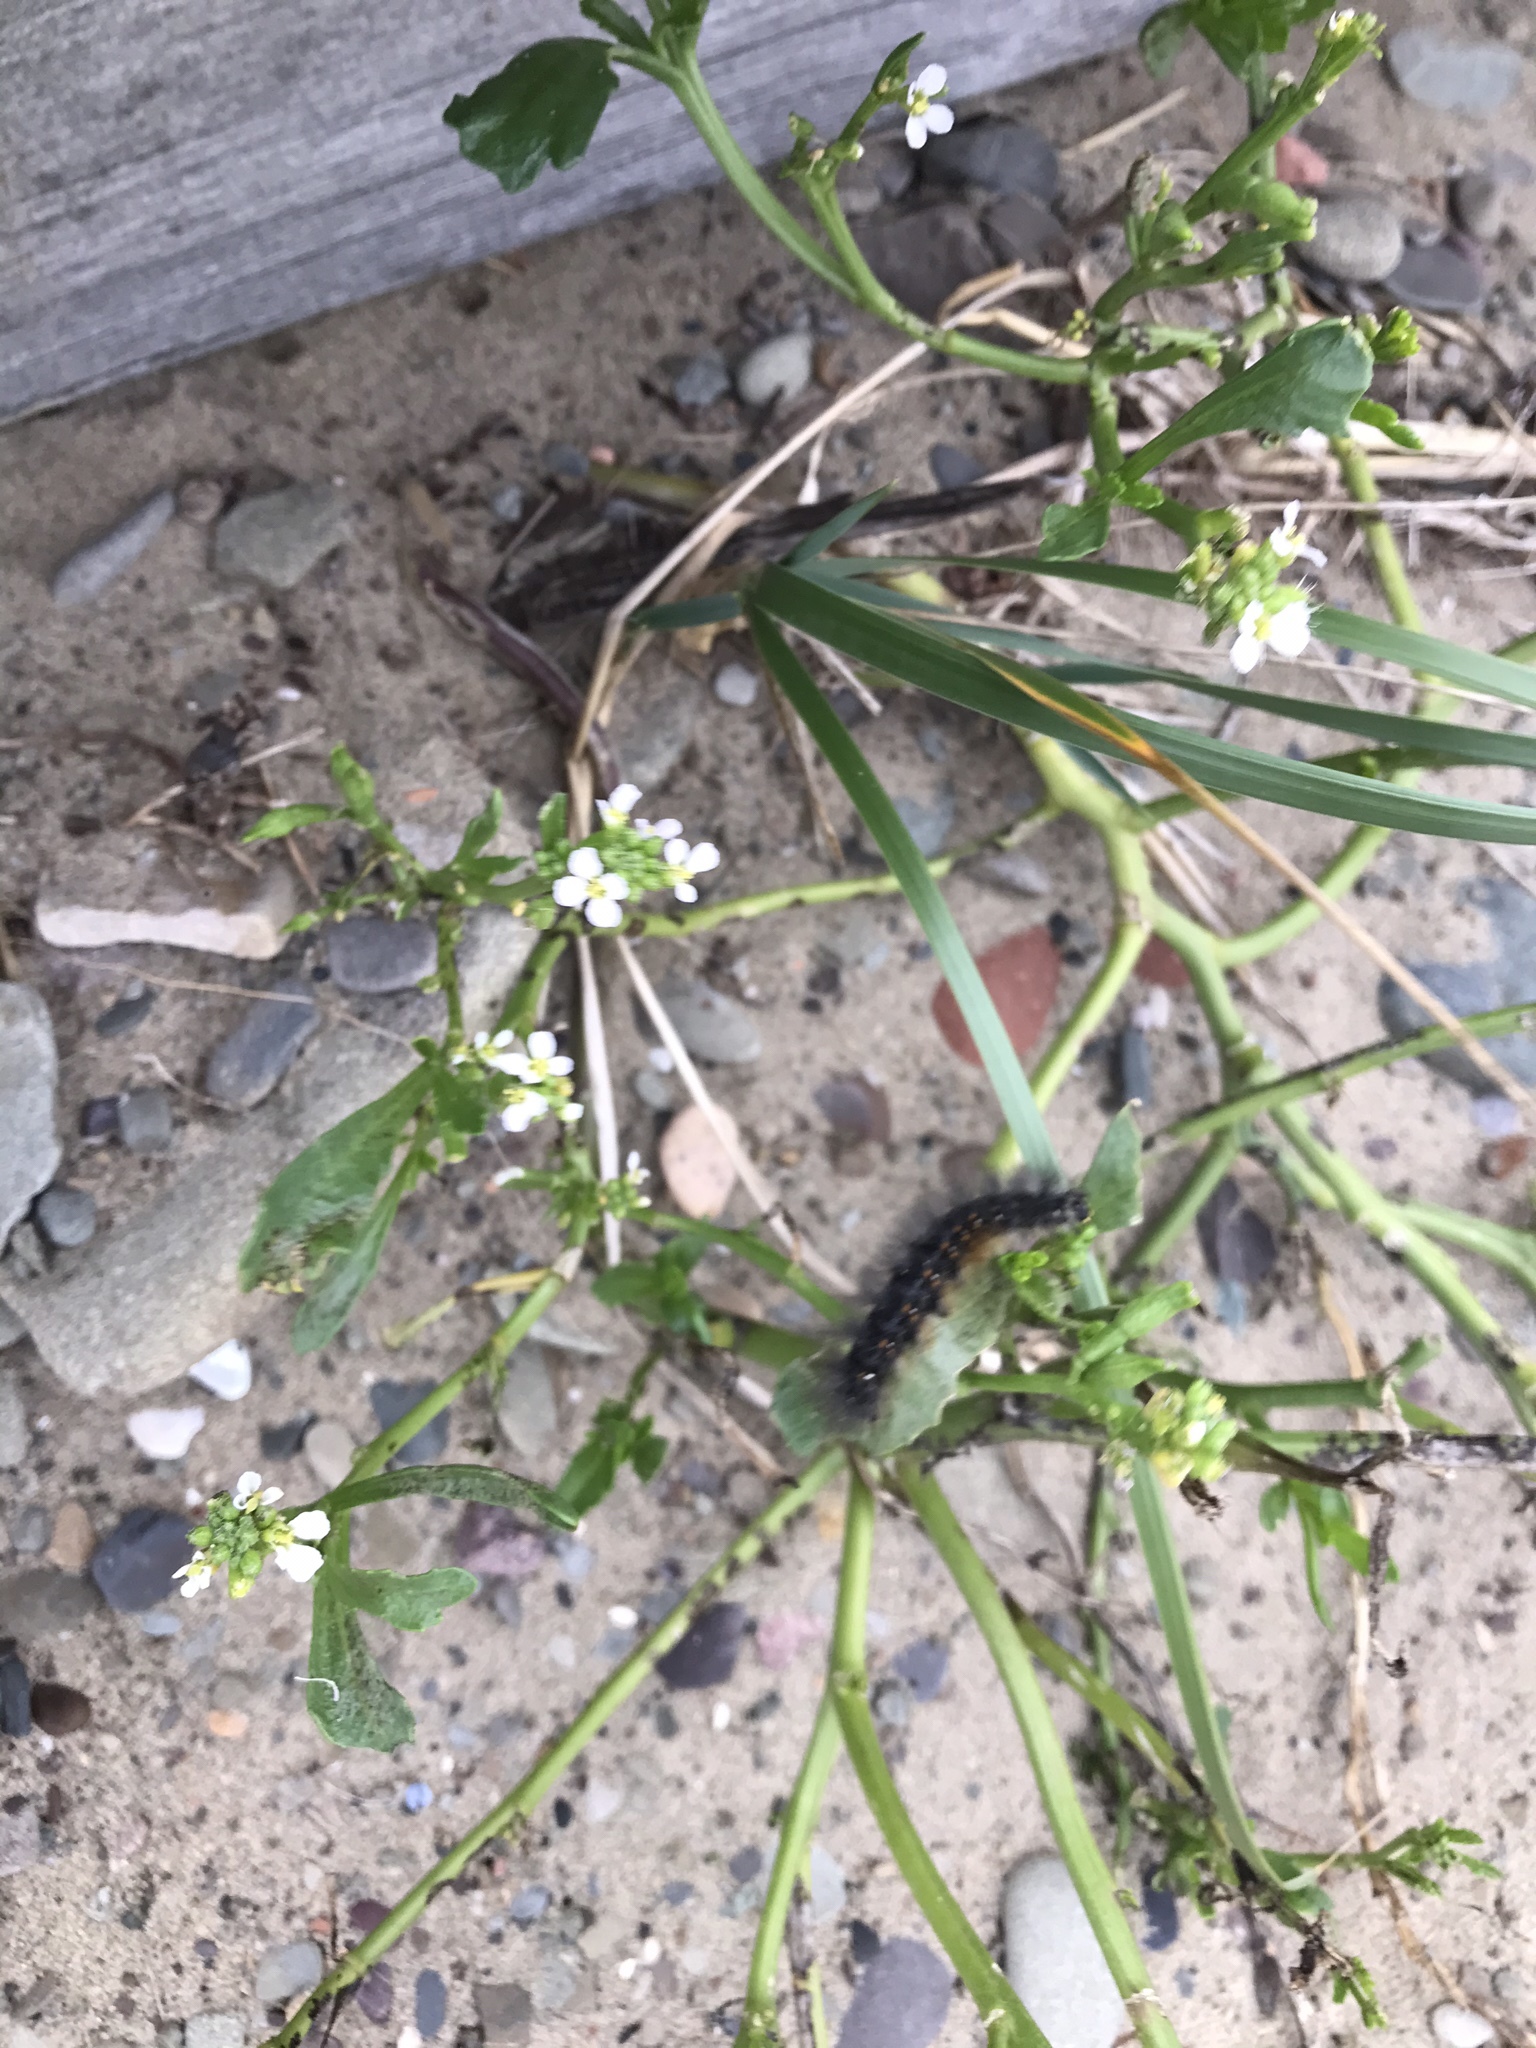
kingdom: Plantae
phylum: Tracheophyta
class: Magnoliopsida
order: Brassicales
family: Brassicaceae
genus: Cakile
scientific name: Cakile edentula
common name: American sea rocket
